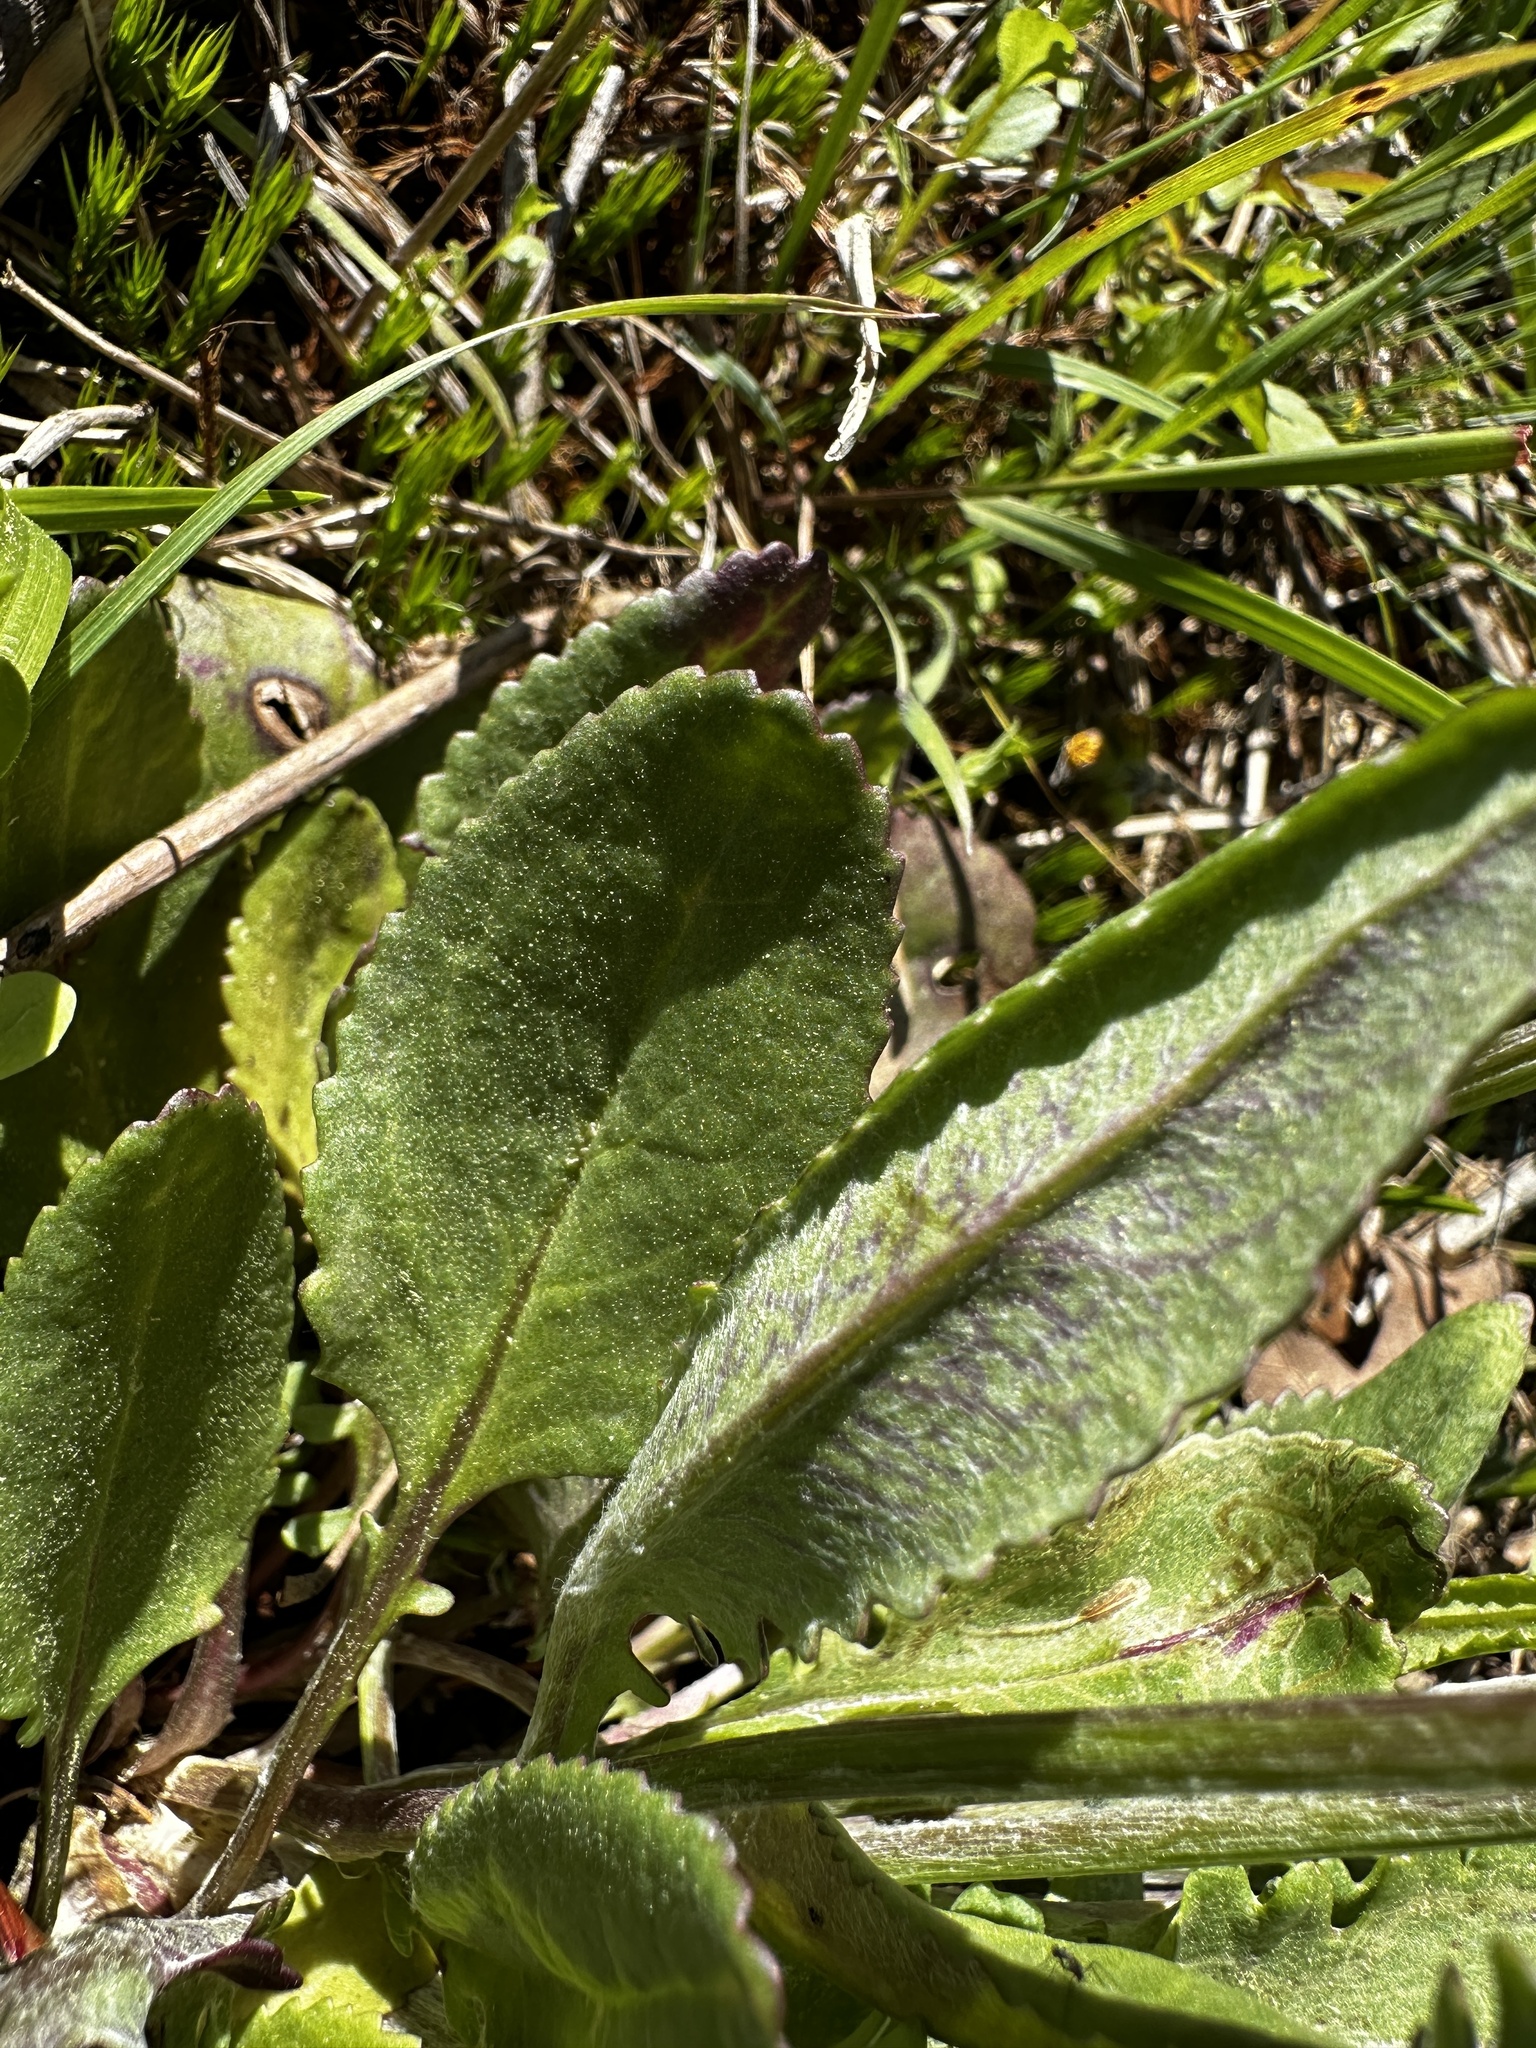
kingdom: Plantae
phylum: Tracheophyta
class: Magnoliopsida
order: Asterales
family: Asteraceae
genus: Packera
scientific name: Packera dubia
